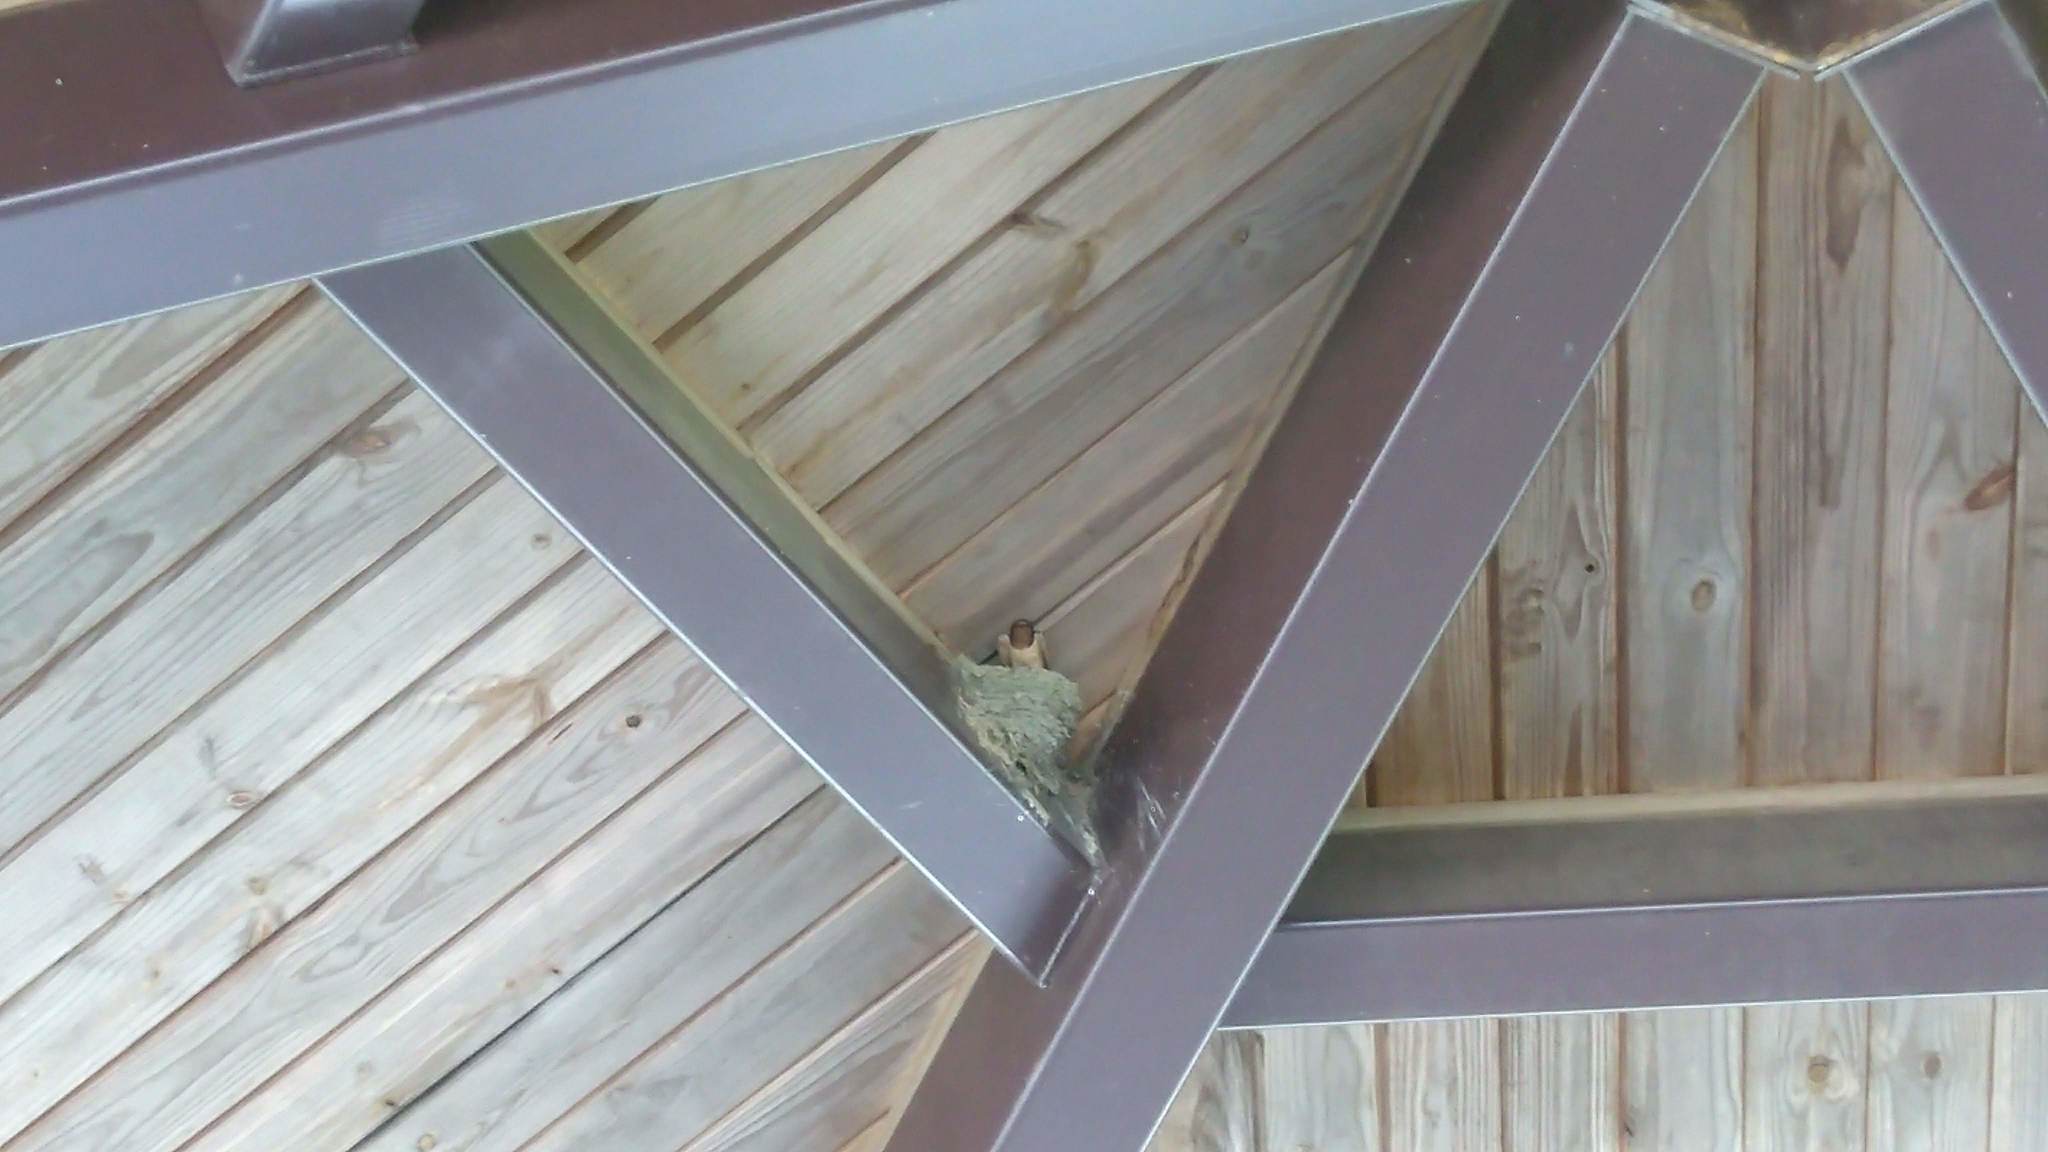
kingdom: Animalia
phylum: Chordata
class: Aves
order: Passeriformes
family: Hirundinidae
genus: Hirundo
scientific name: Hirundo rustica
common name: Barn swallow
